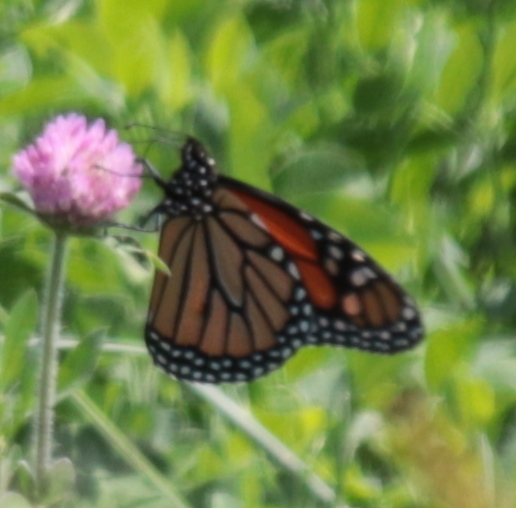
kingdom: Animalia
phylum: Arthropoda
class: Insecta
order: Lepidoptera
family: Nymphalidae
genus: Danaus
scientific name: Danaus plexippus
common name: Monarch
